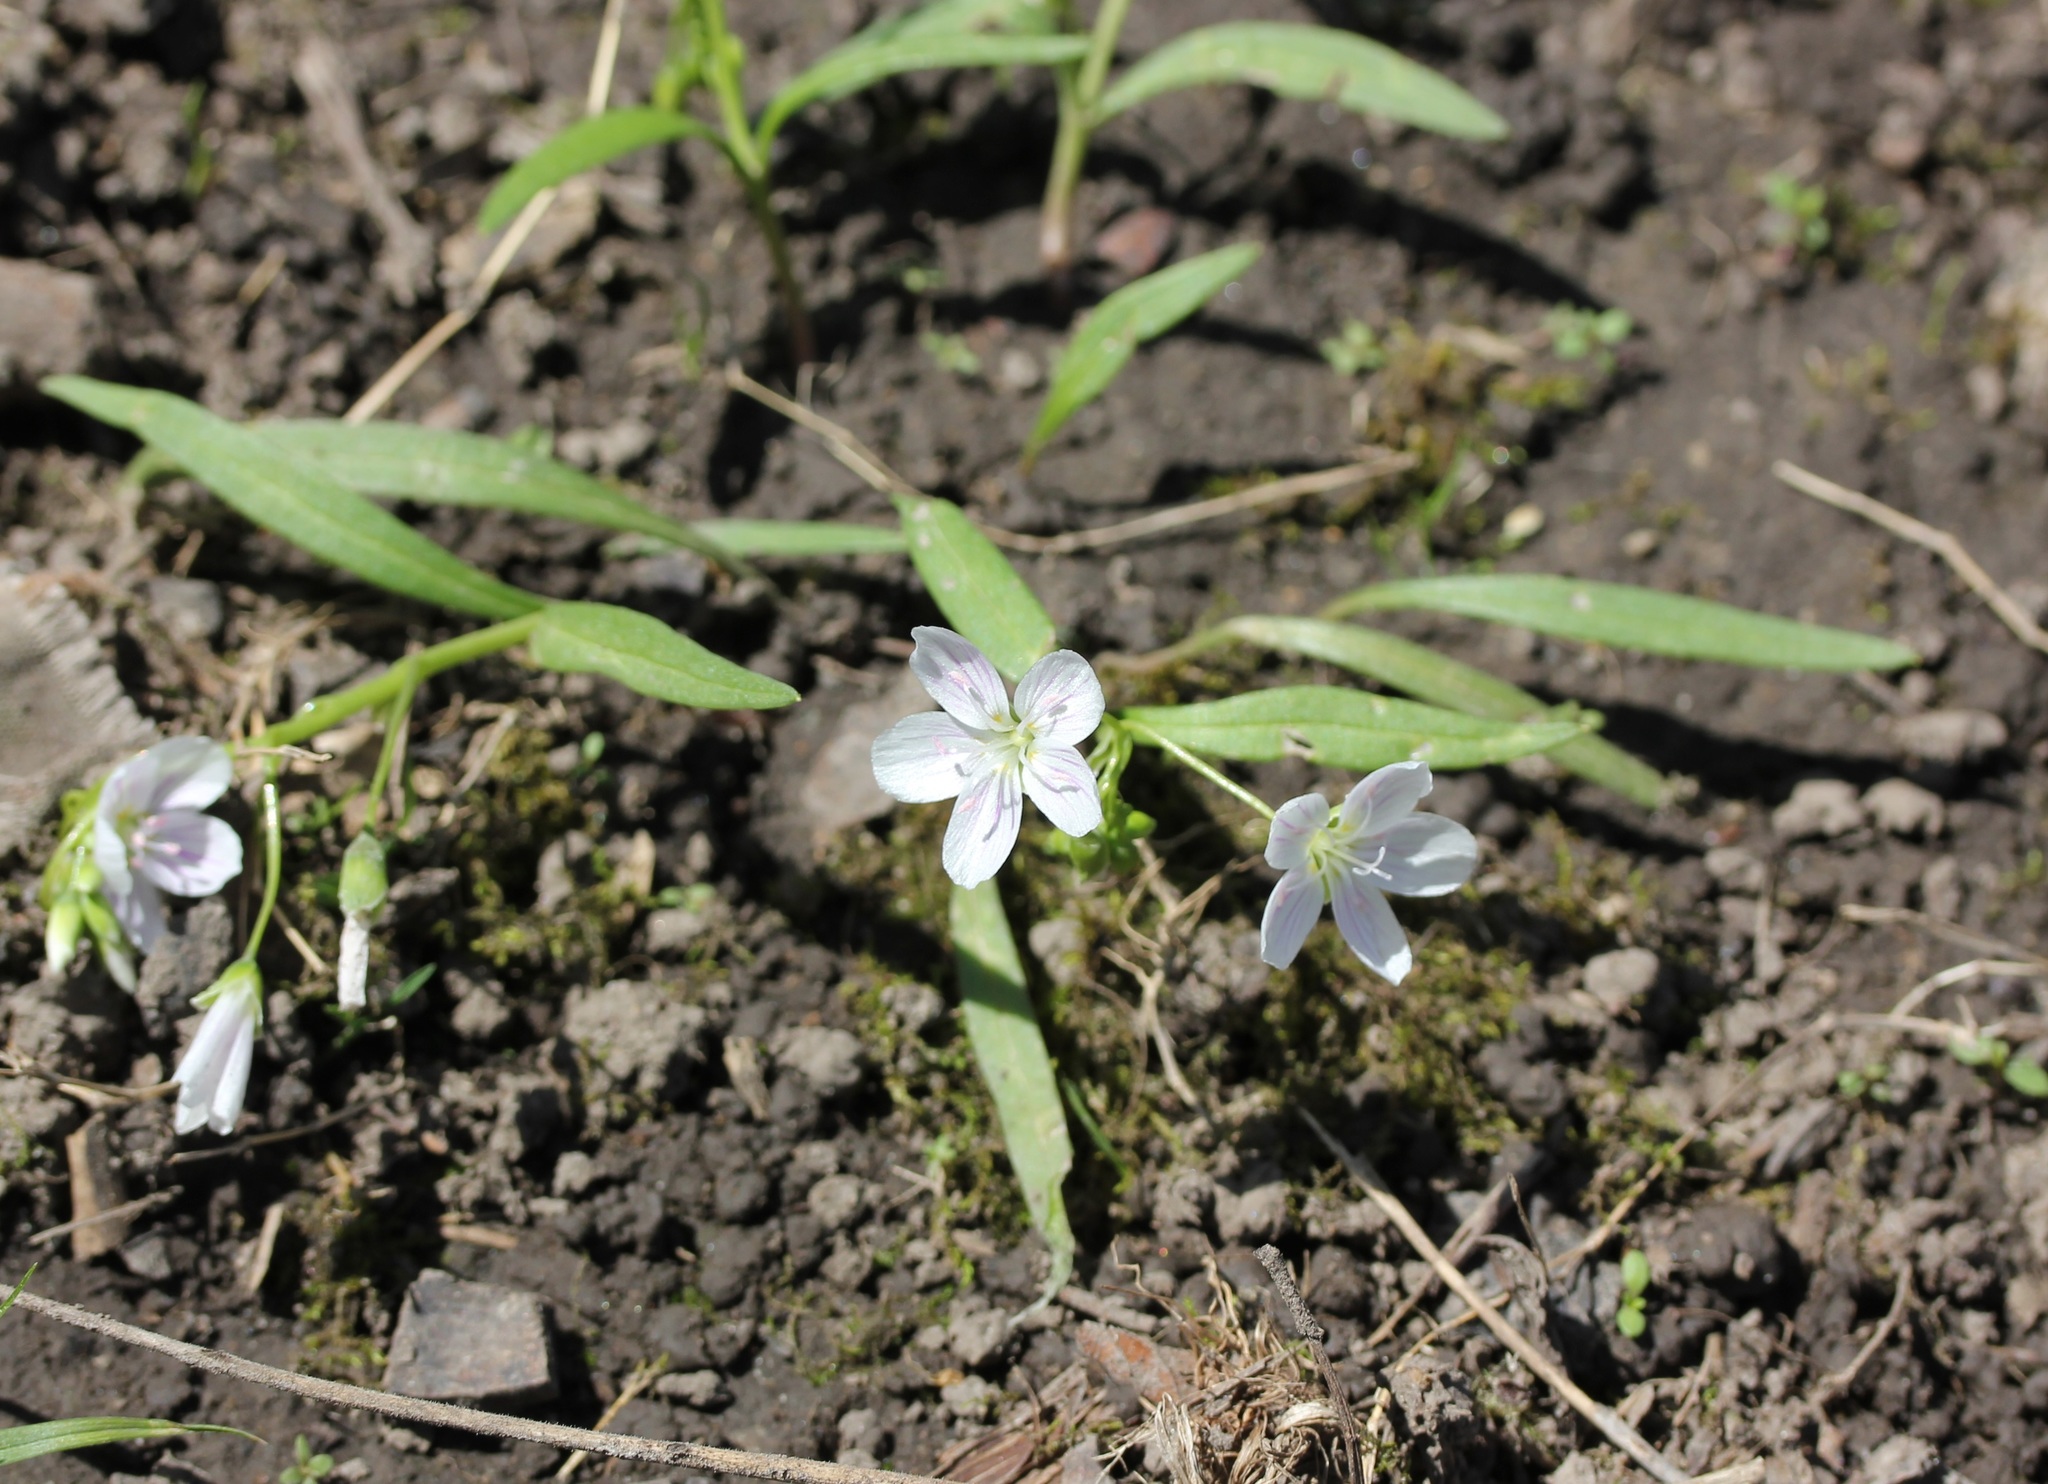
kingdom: Plantae
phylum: Tracheophyta
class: Magnoliopsida
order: Caryophyllales
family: Montiaceae
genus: Claytonia
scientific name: Claytonia virginica
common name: Virginia springbeauty
